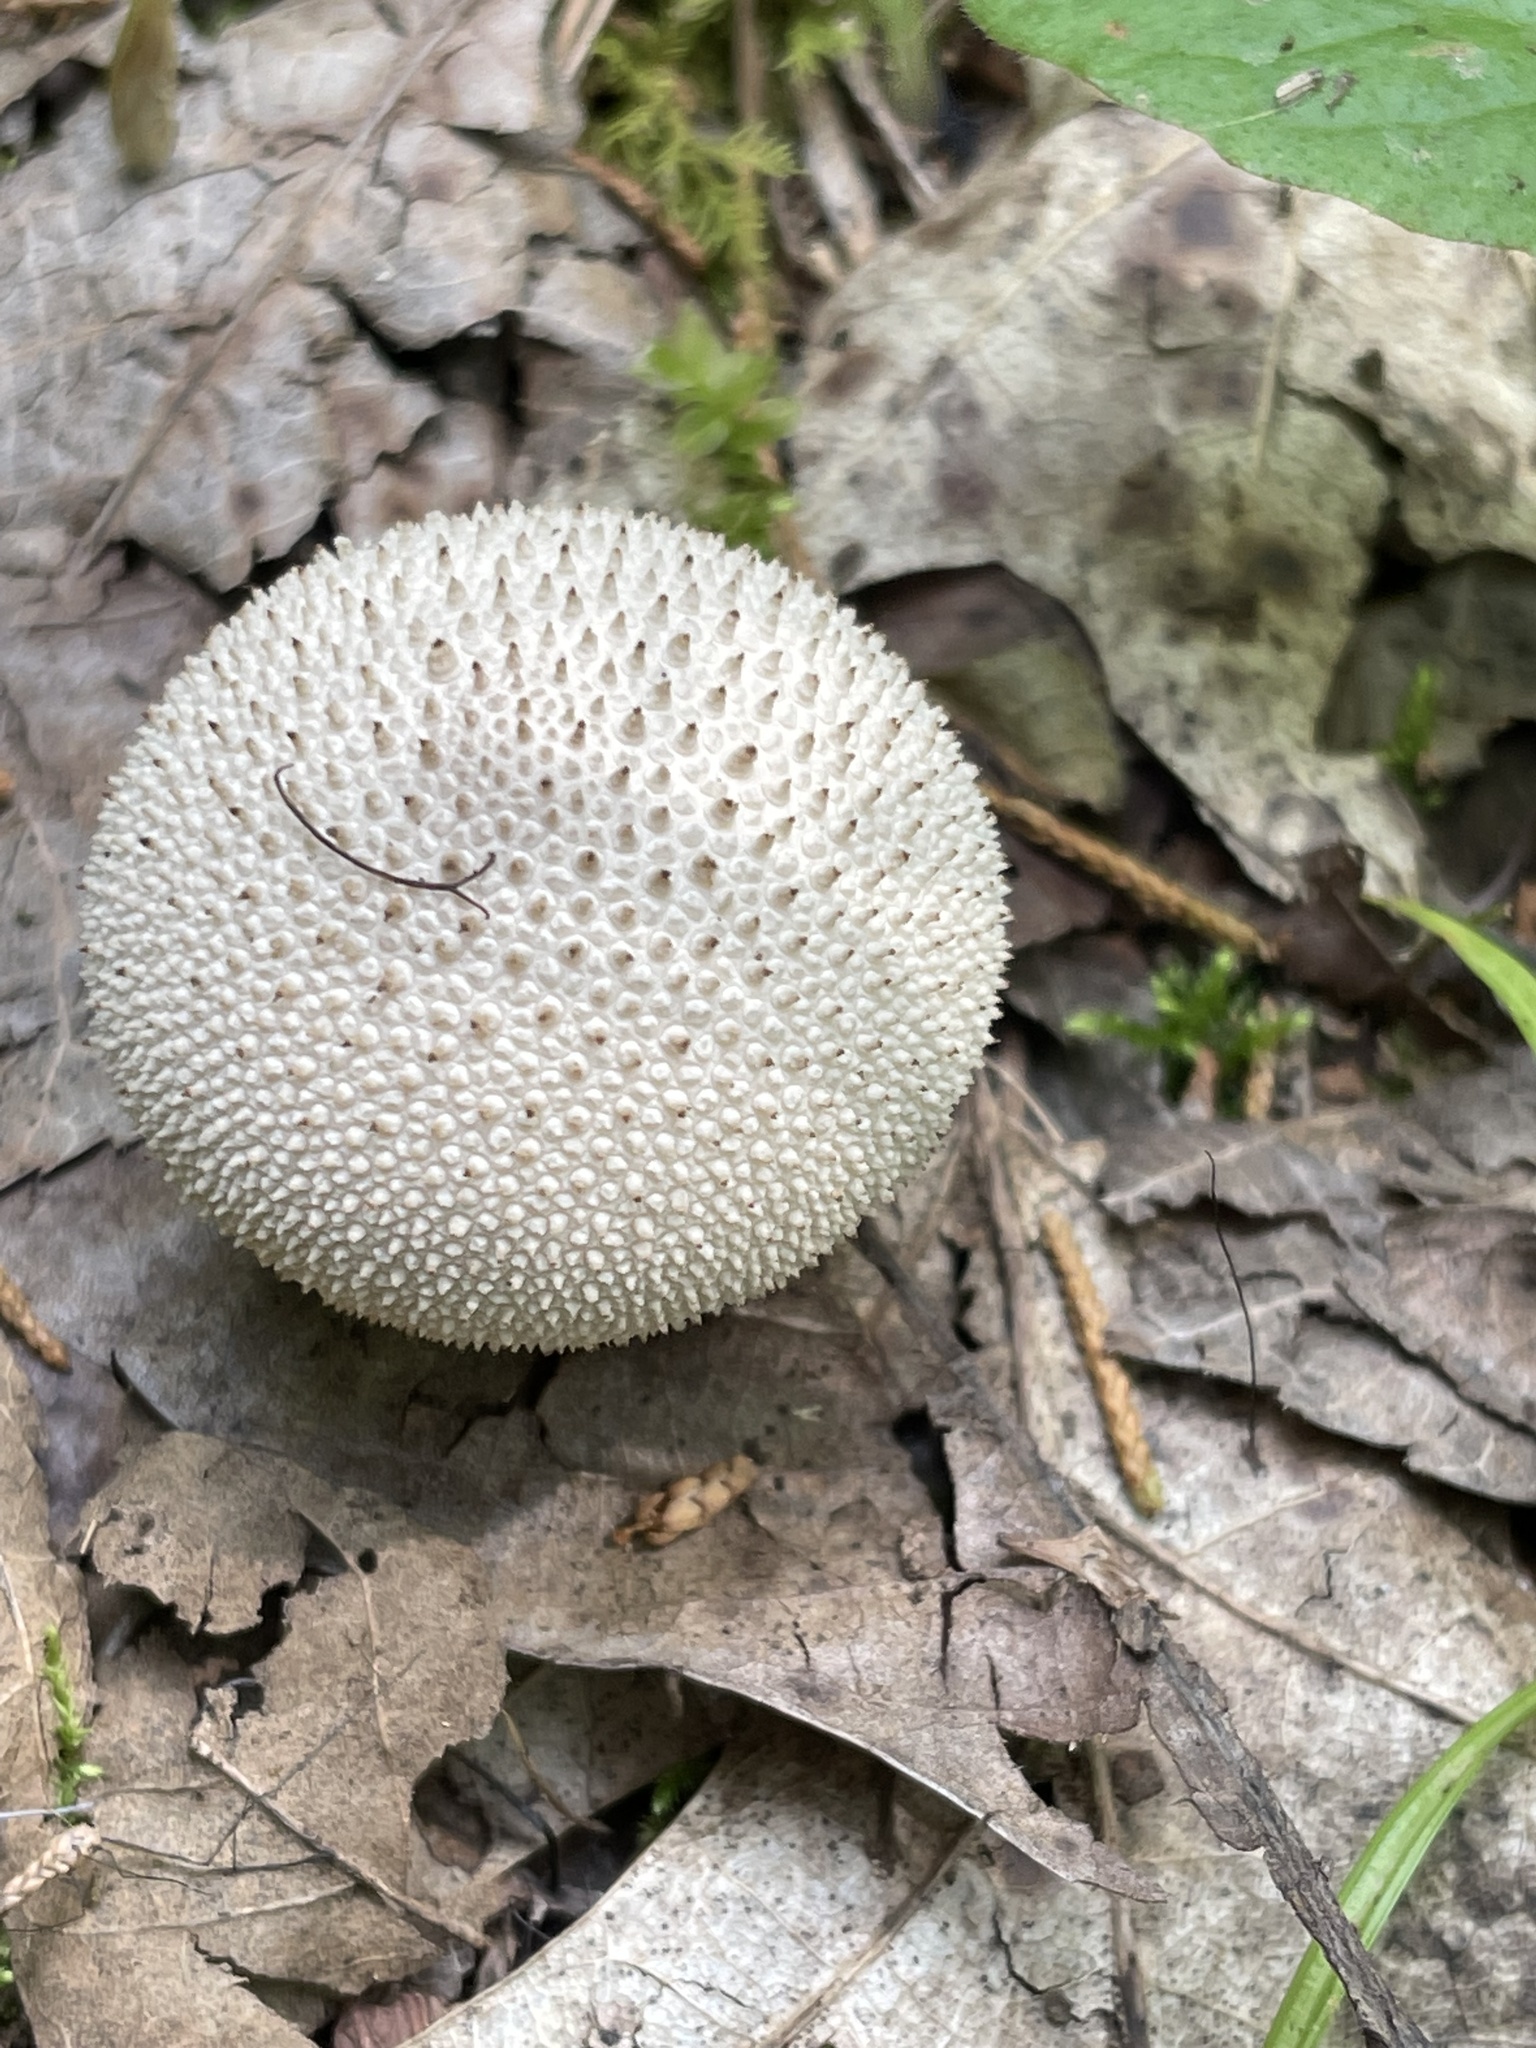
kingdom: Fungi
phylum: Basidiomycota
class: Agaricomycetes
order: Agaricales
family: Lycoperdaceae
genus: Lycoperdon
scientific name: Lycoperdon perlatum
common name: Common puffball
